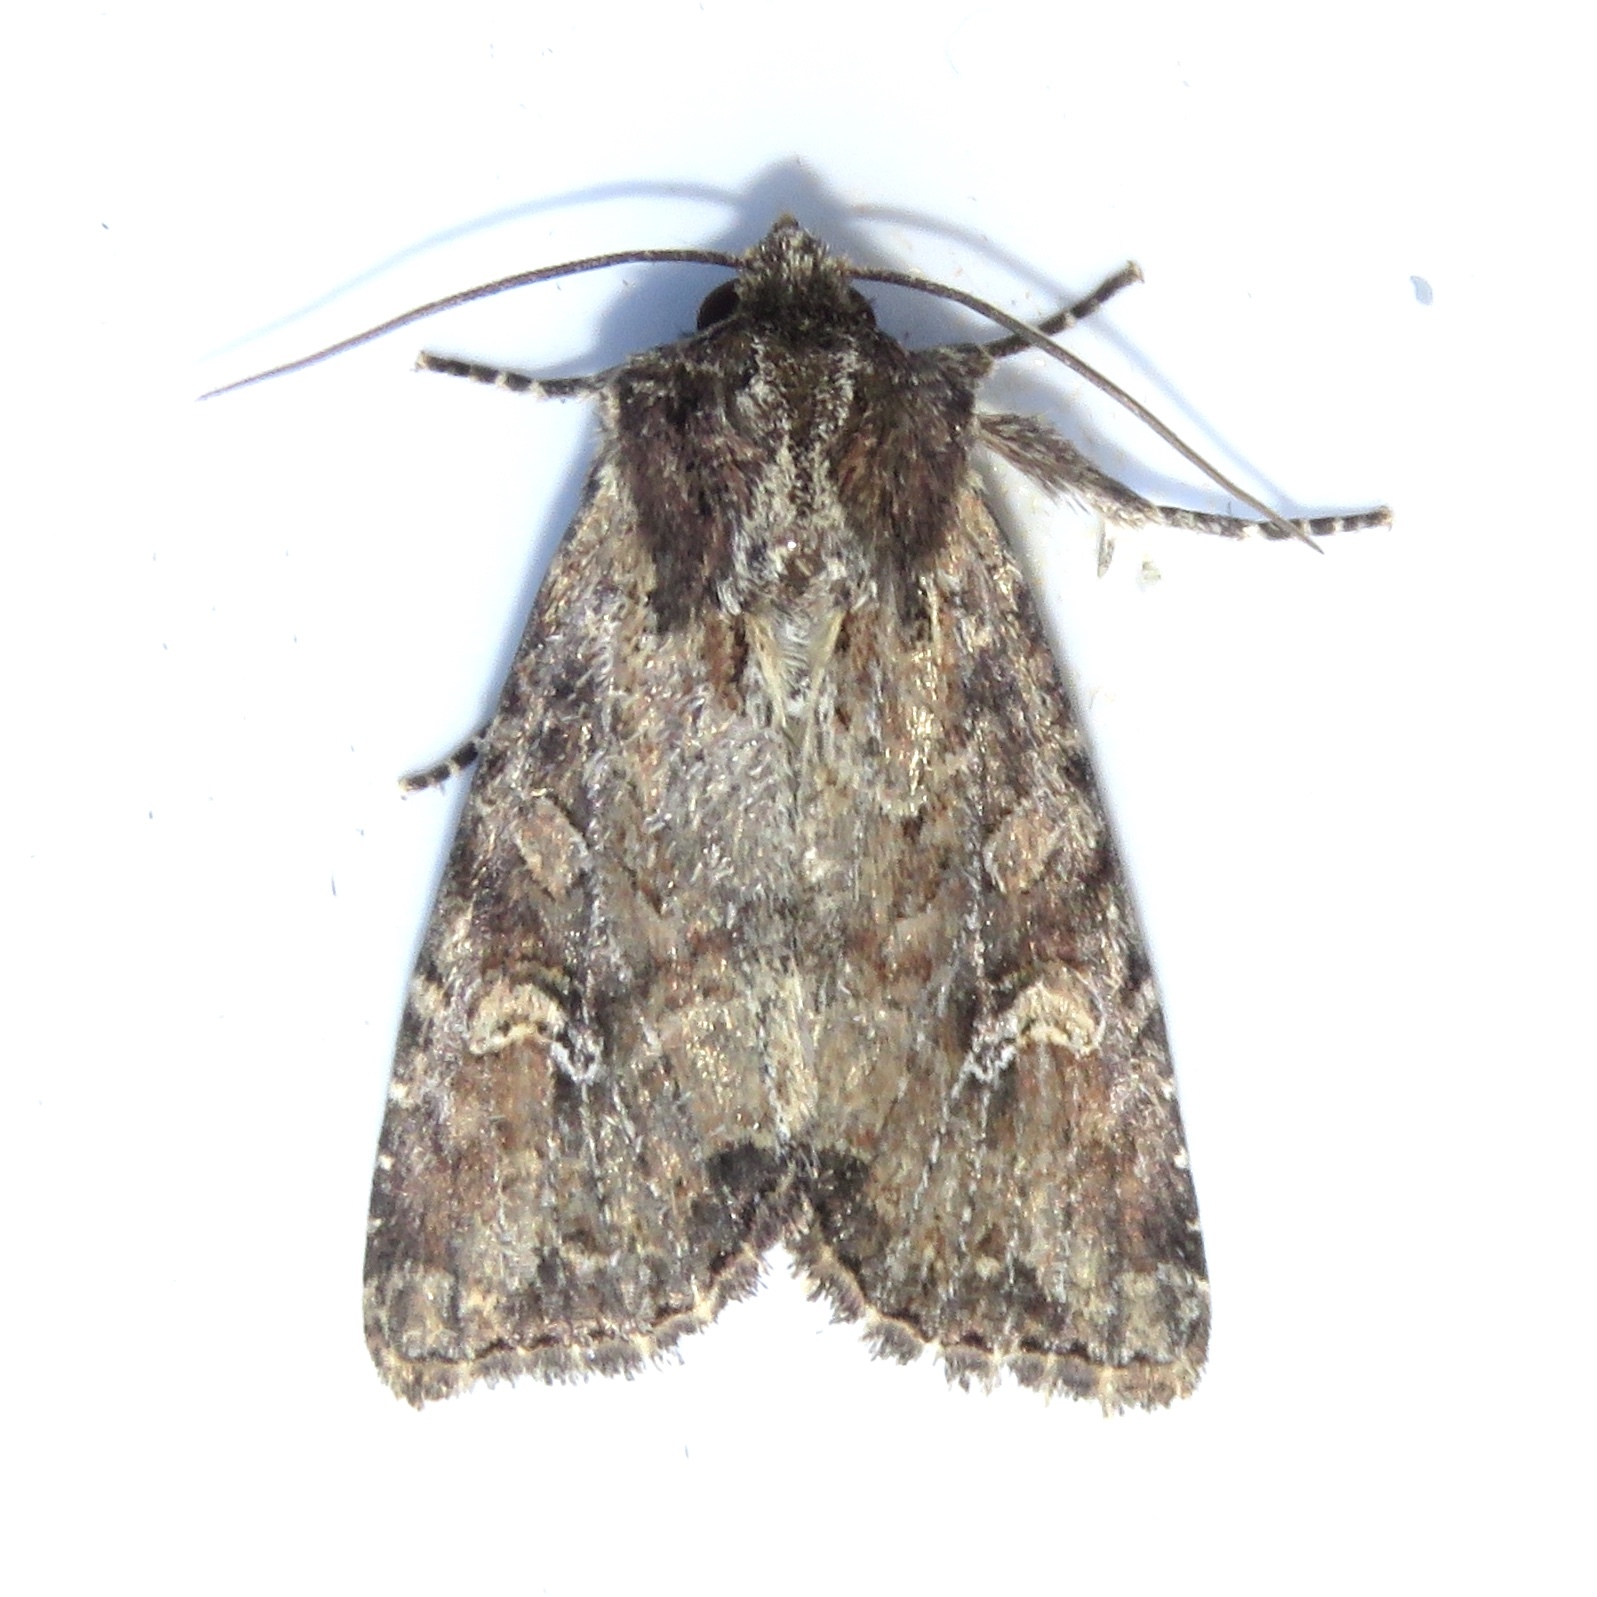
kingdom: Animalia
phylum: Arthropoda
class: Insecta
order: Lepidoptera
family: Noctuidae
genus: Apamea
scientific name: Apamea unanimis
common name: Small clouded brindle
